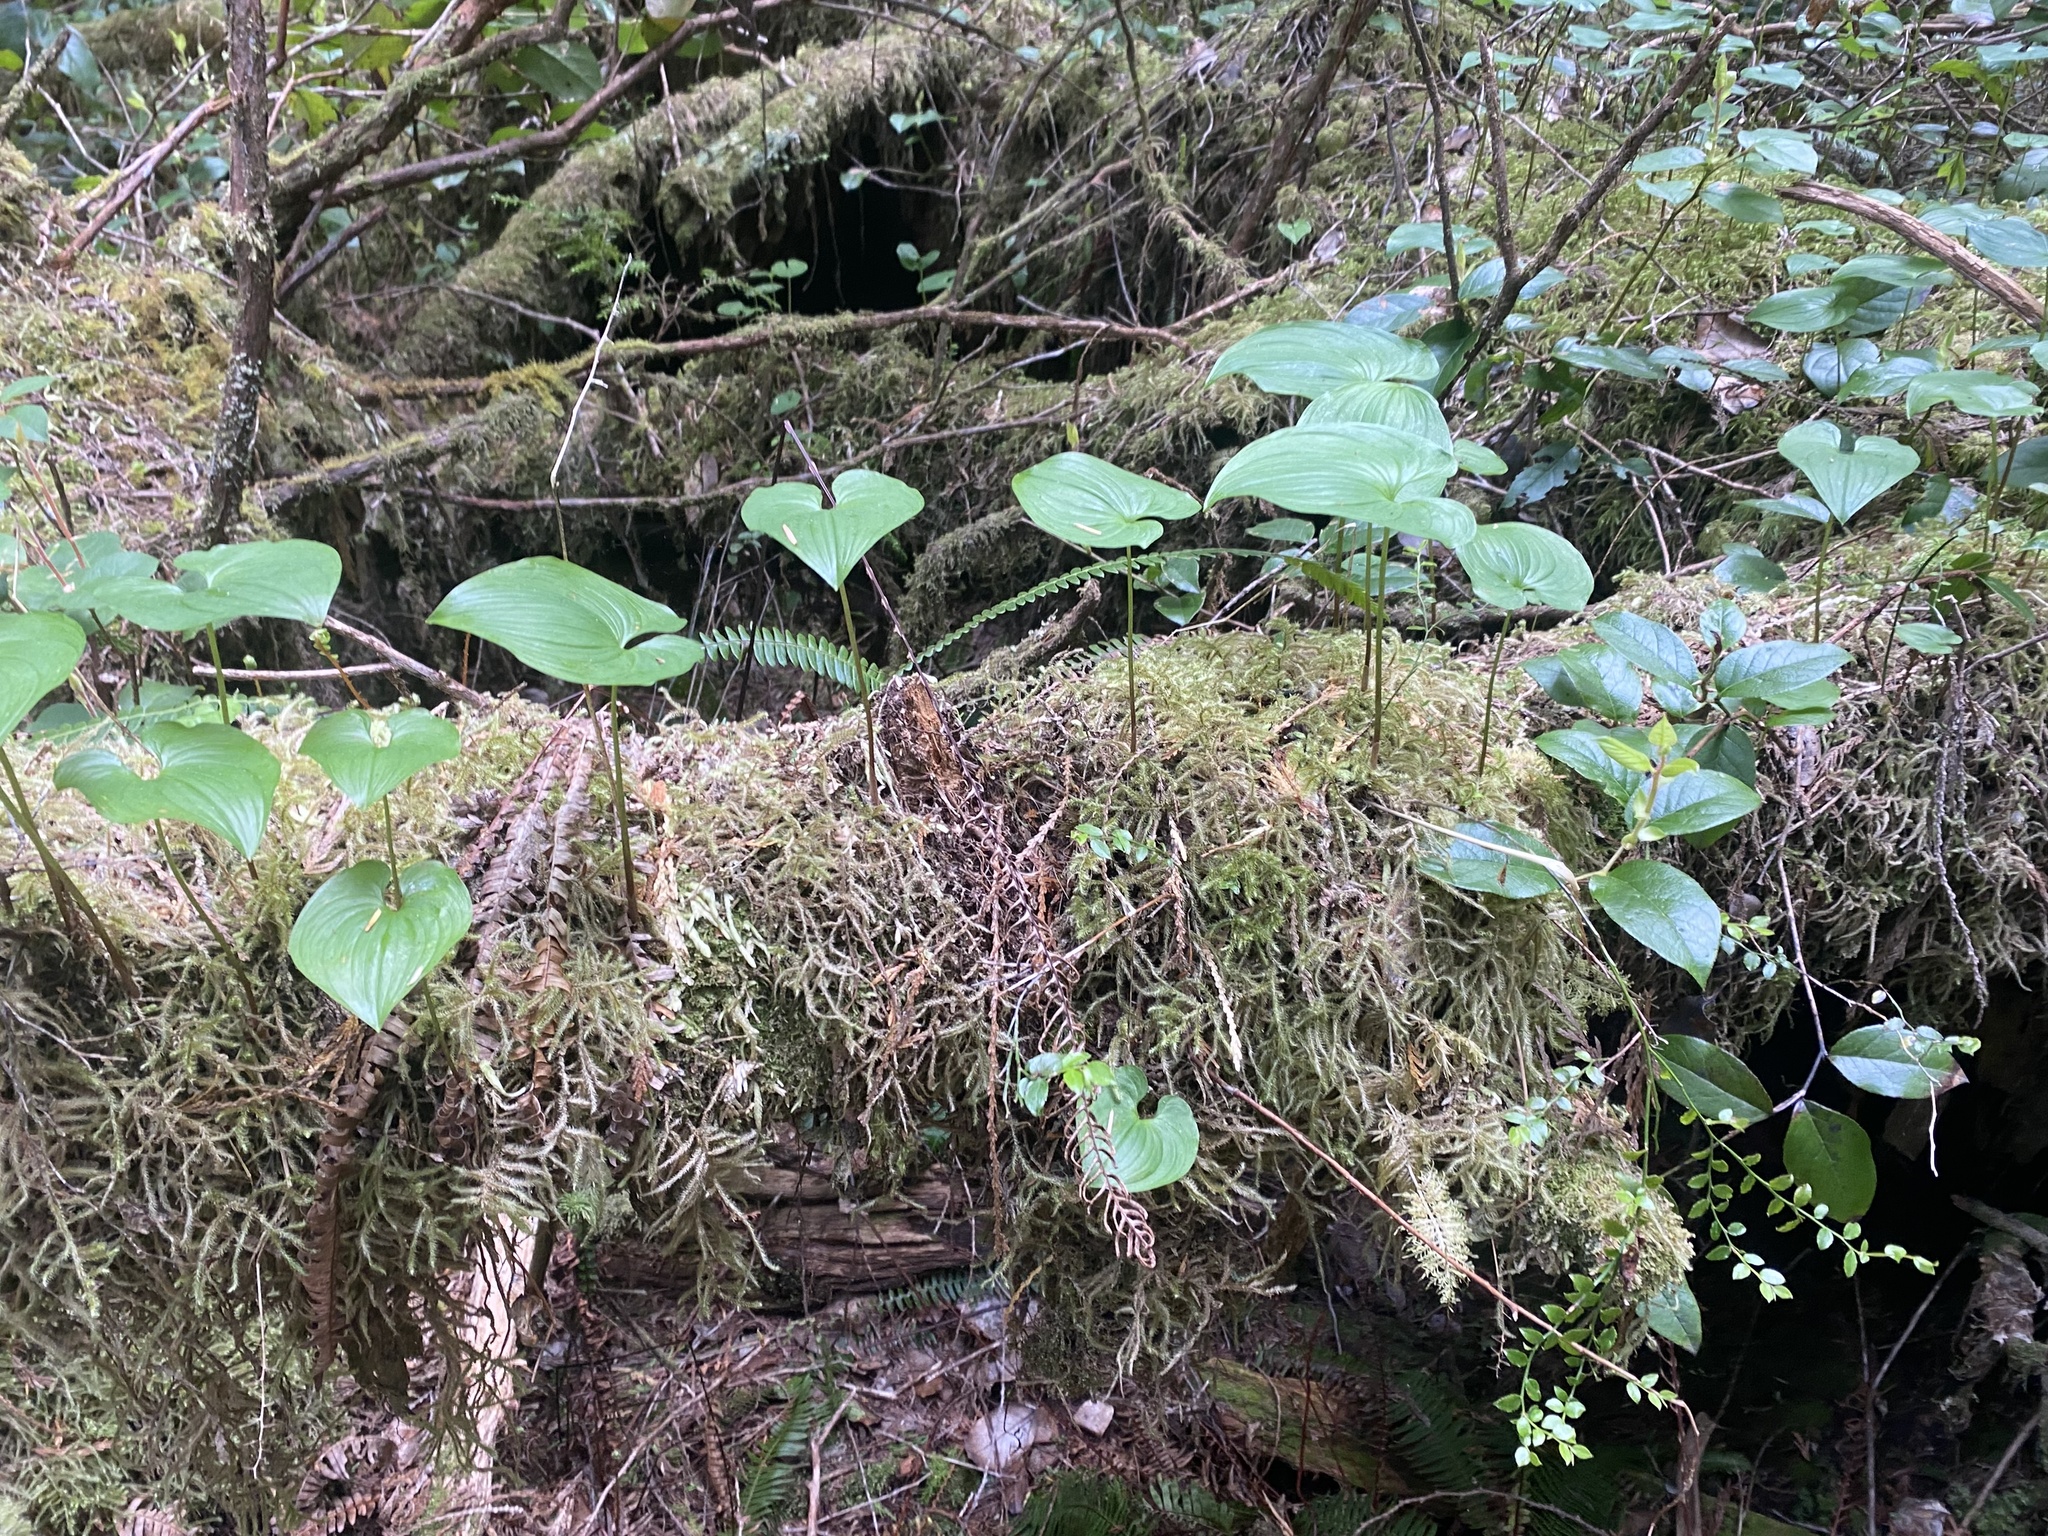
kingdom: Plantae
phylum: Tracheophyta
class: Liliopsida
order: Asparagales
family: Asparagaceae
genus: Maianthemum
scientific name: Maianthemum dilatatum
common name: False lily-of-the-valley
